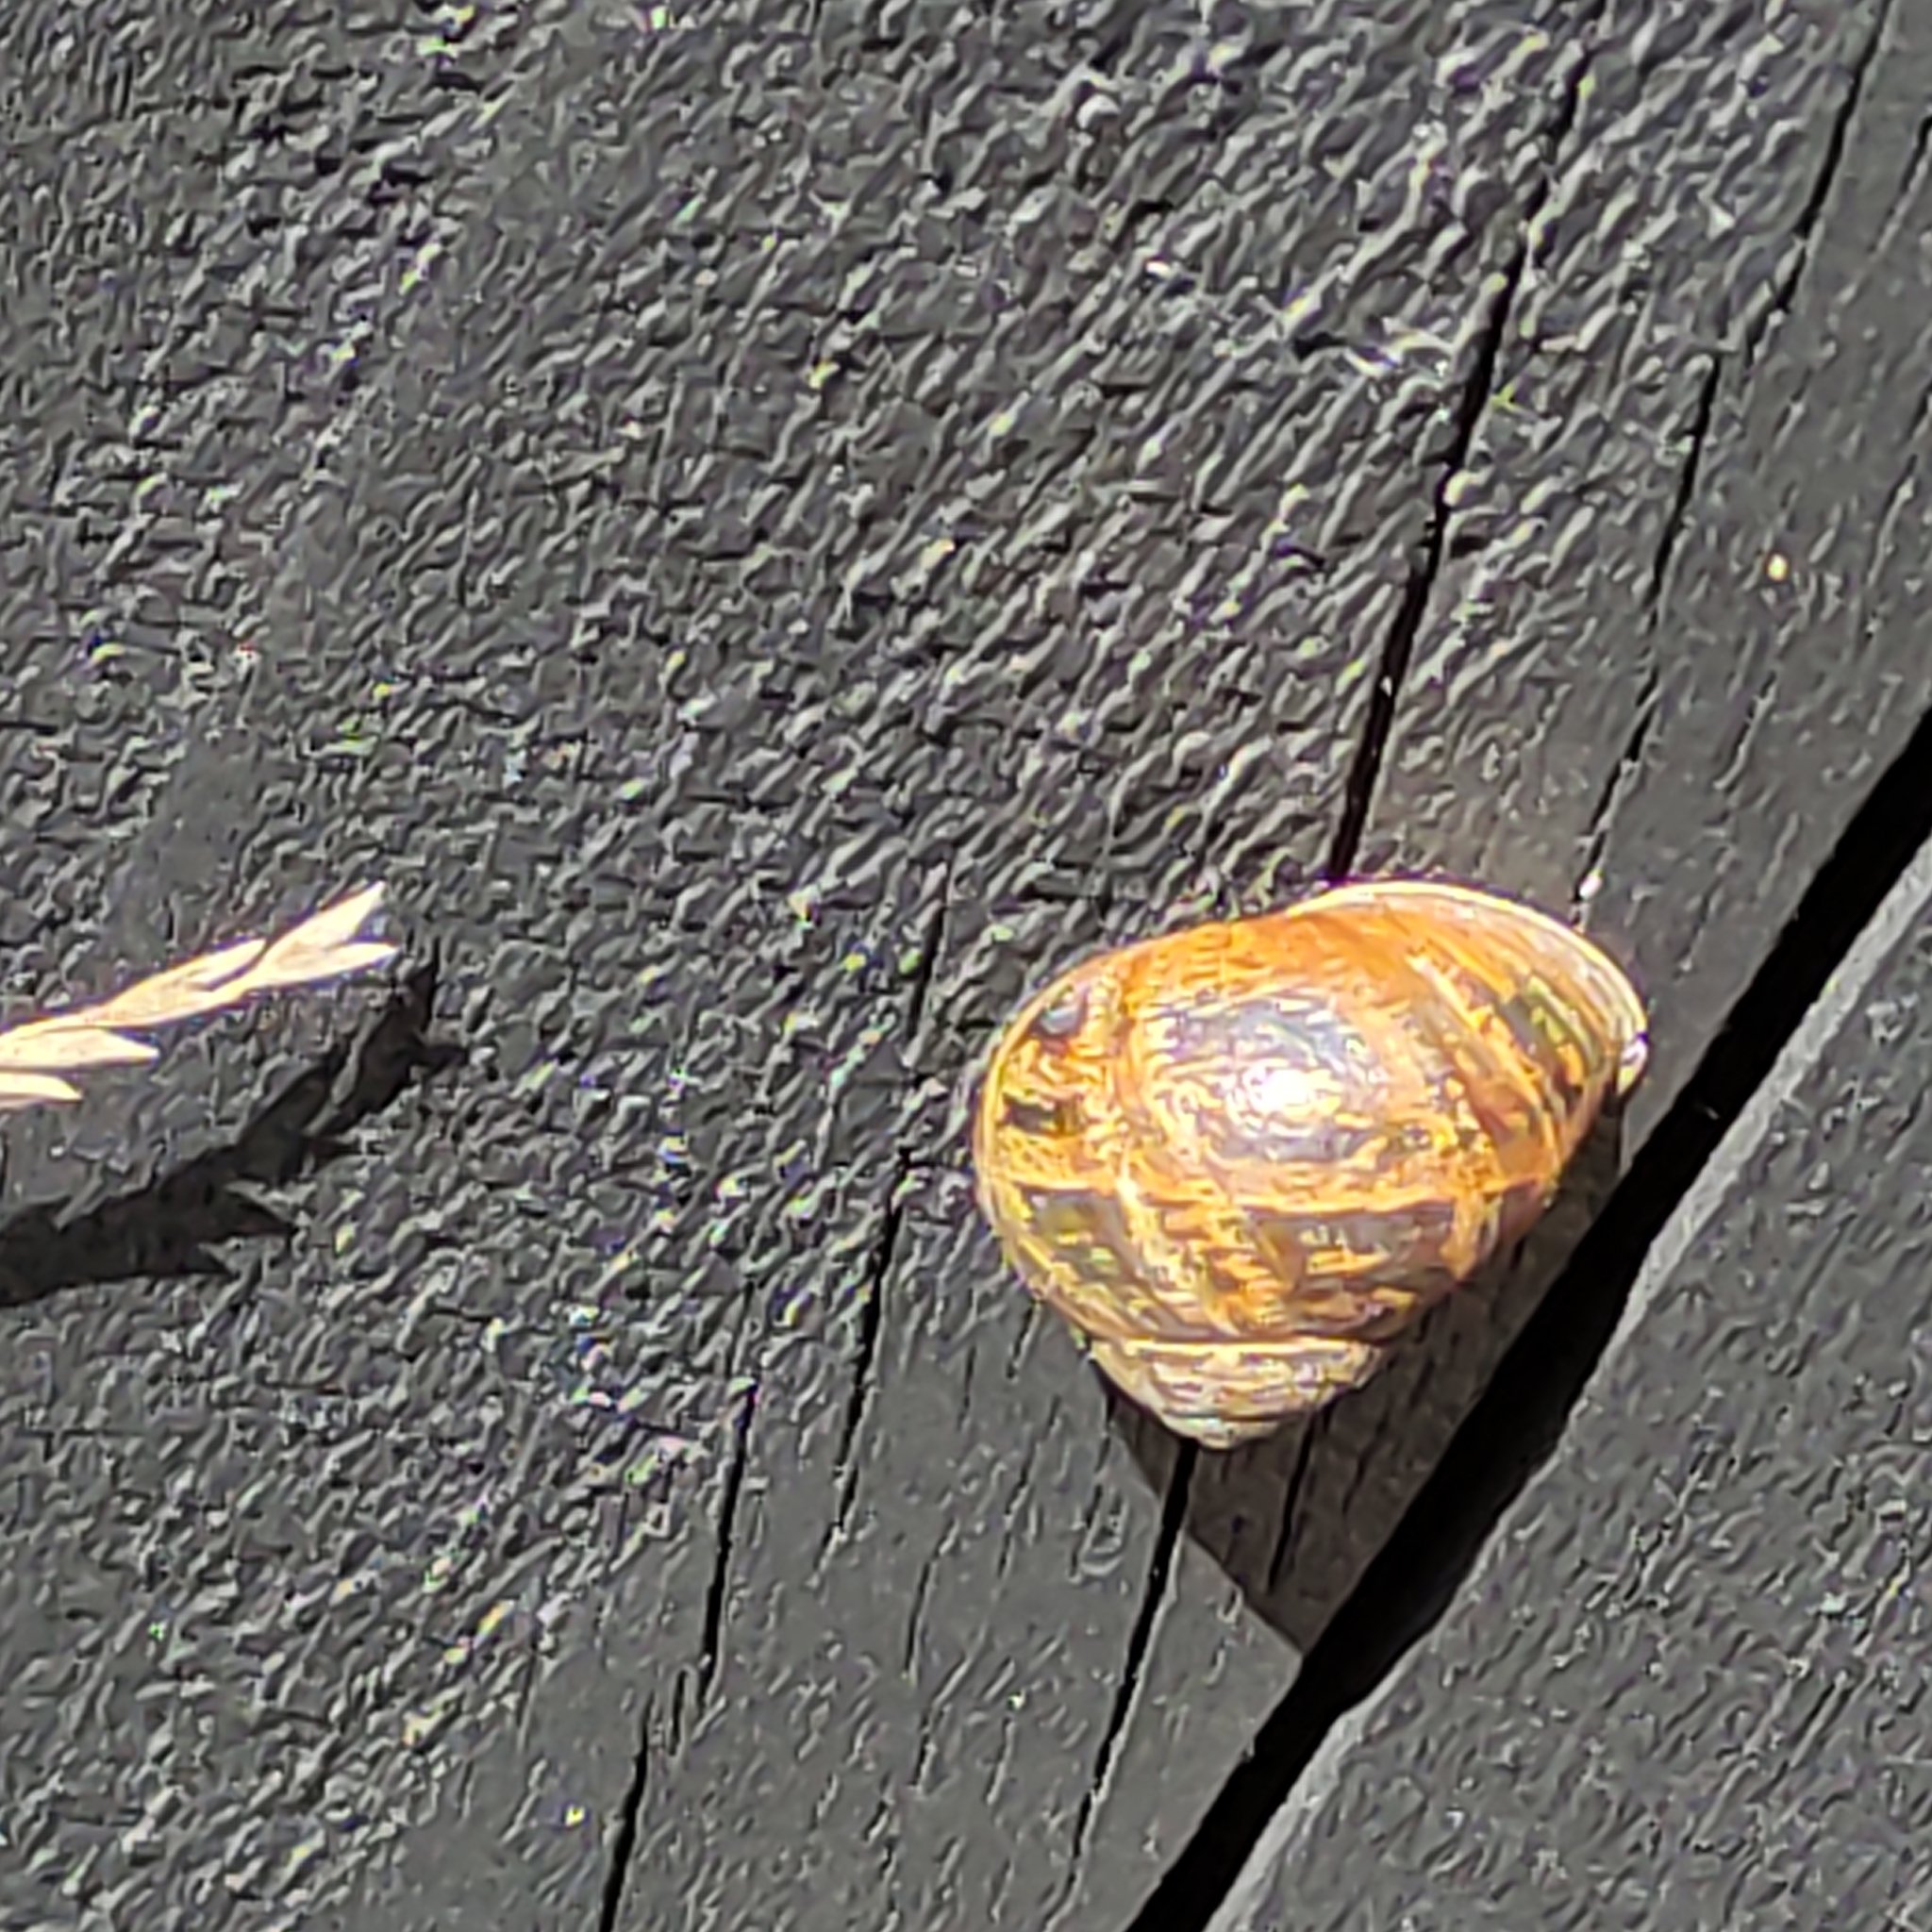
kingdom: Animalia
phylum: Mollusca
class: Gastropoda
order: Stylommatophora
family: Helicidae
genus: Cornu
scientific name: Cornu aspersum
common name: Brown garden snail
